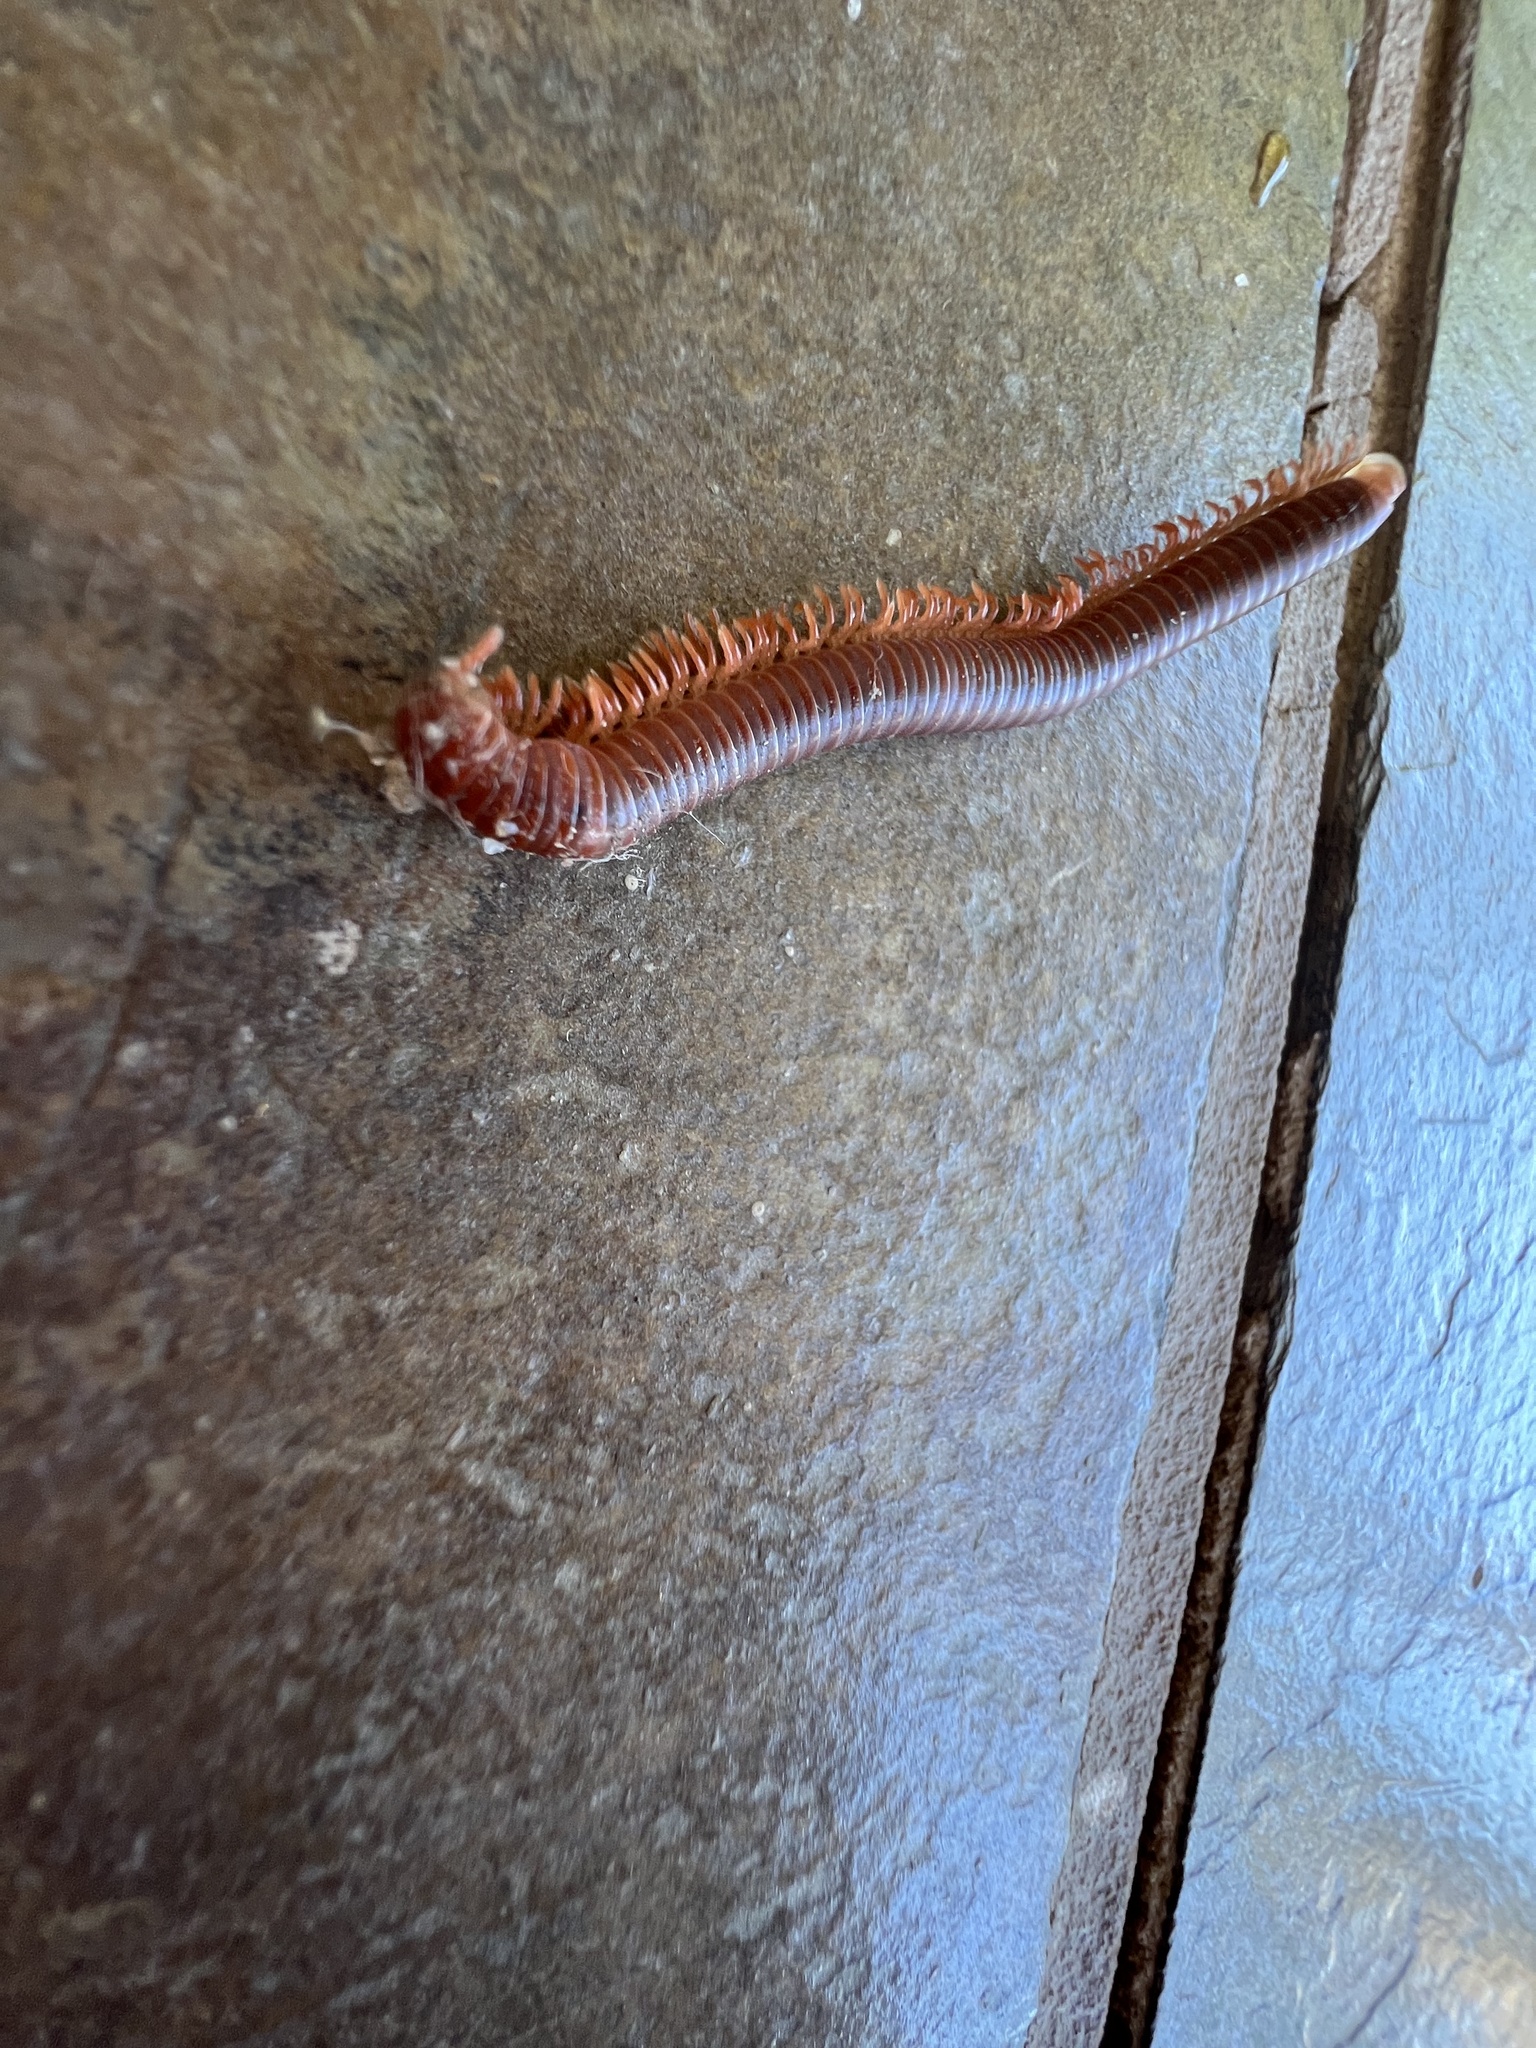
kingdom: Animalia
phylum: Arthropoda
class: Diplopoda
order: Spirobolida
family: Pachybolidae
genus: Trigoniulus
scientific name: Trigoniulus corallinus
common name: Millipede
